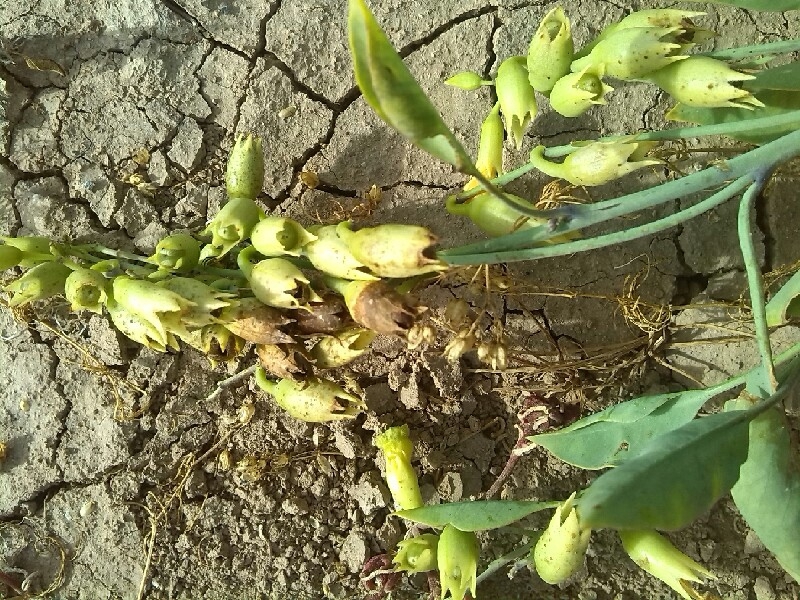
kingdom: Plantae
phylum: Tracheophyta
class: Magnoliopsida
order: Solanales
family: Solanaceae
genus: Nicotiana
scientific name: Nicotiana glauca
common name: Tree tobacco
